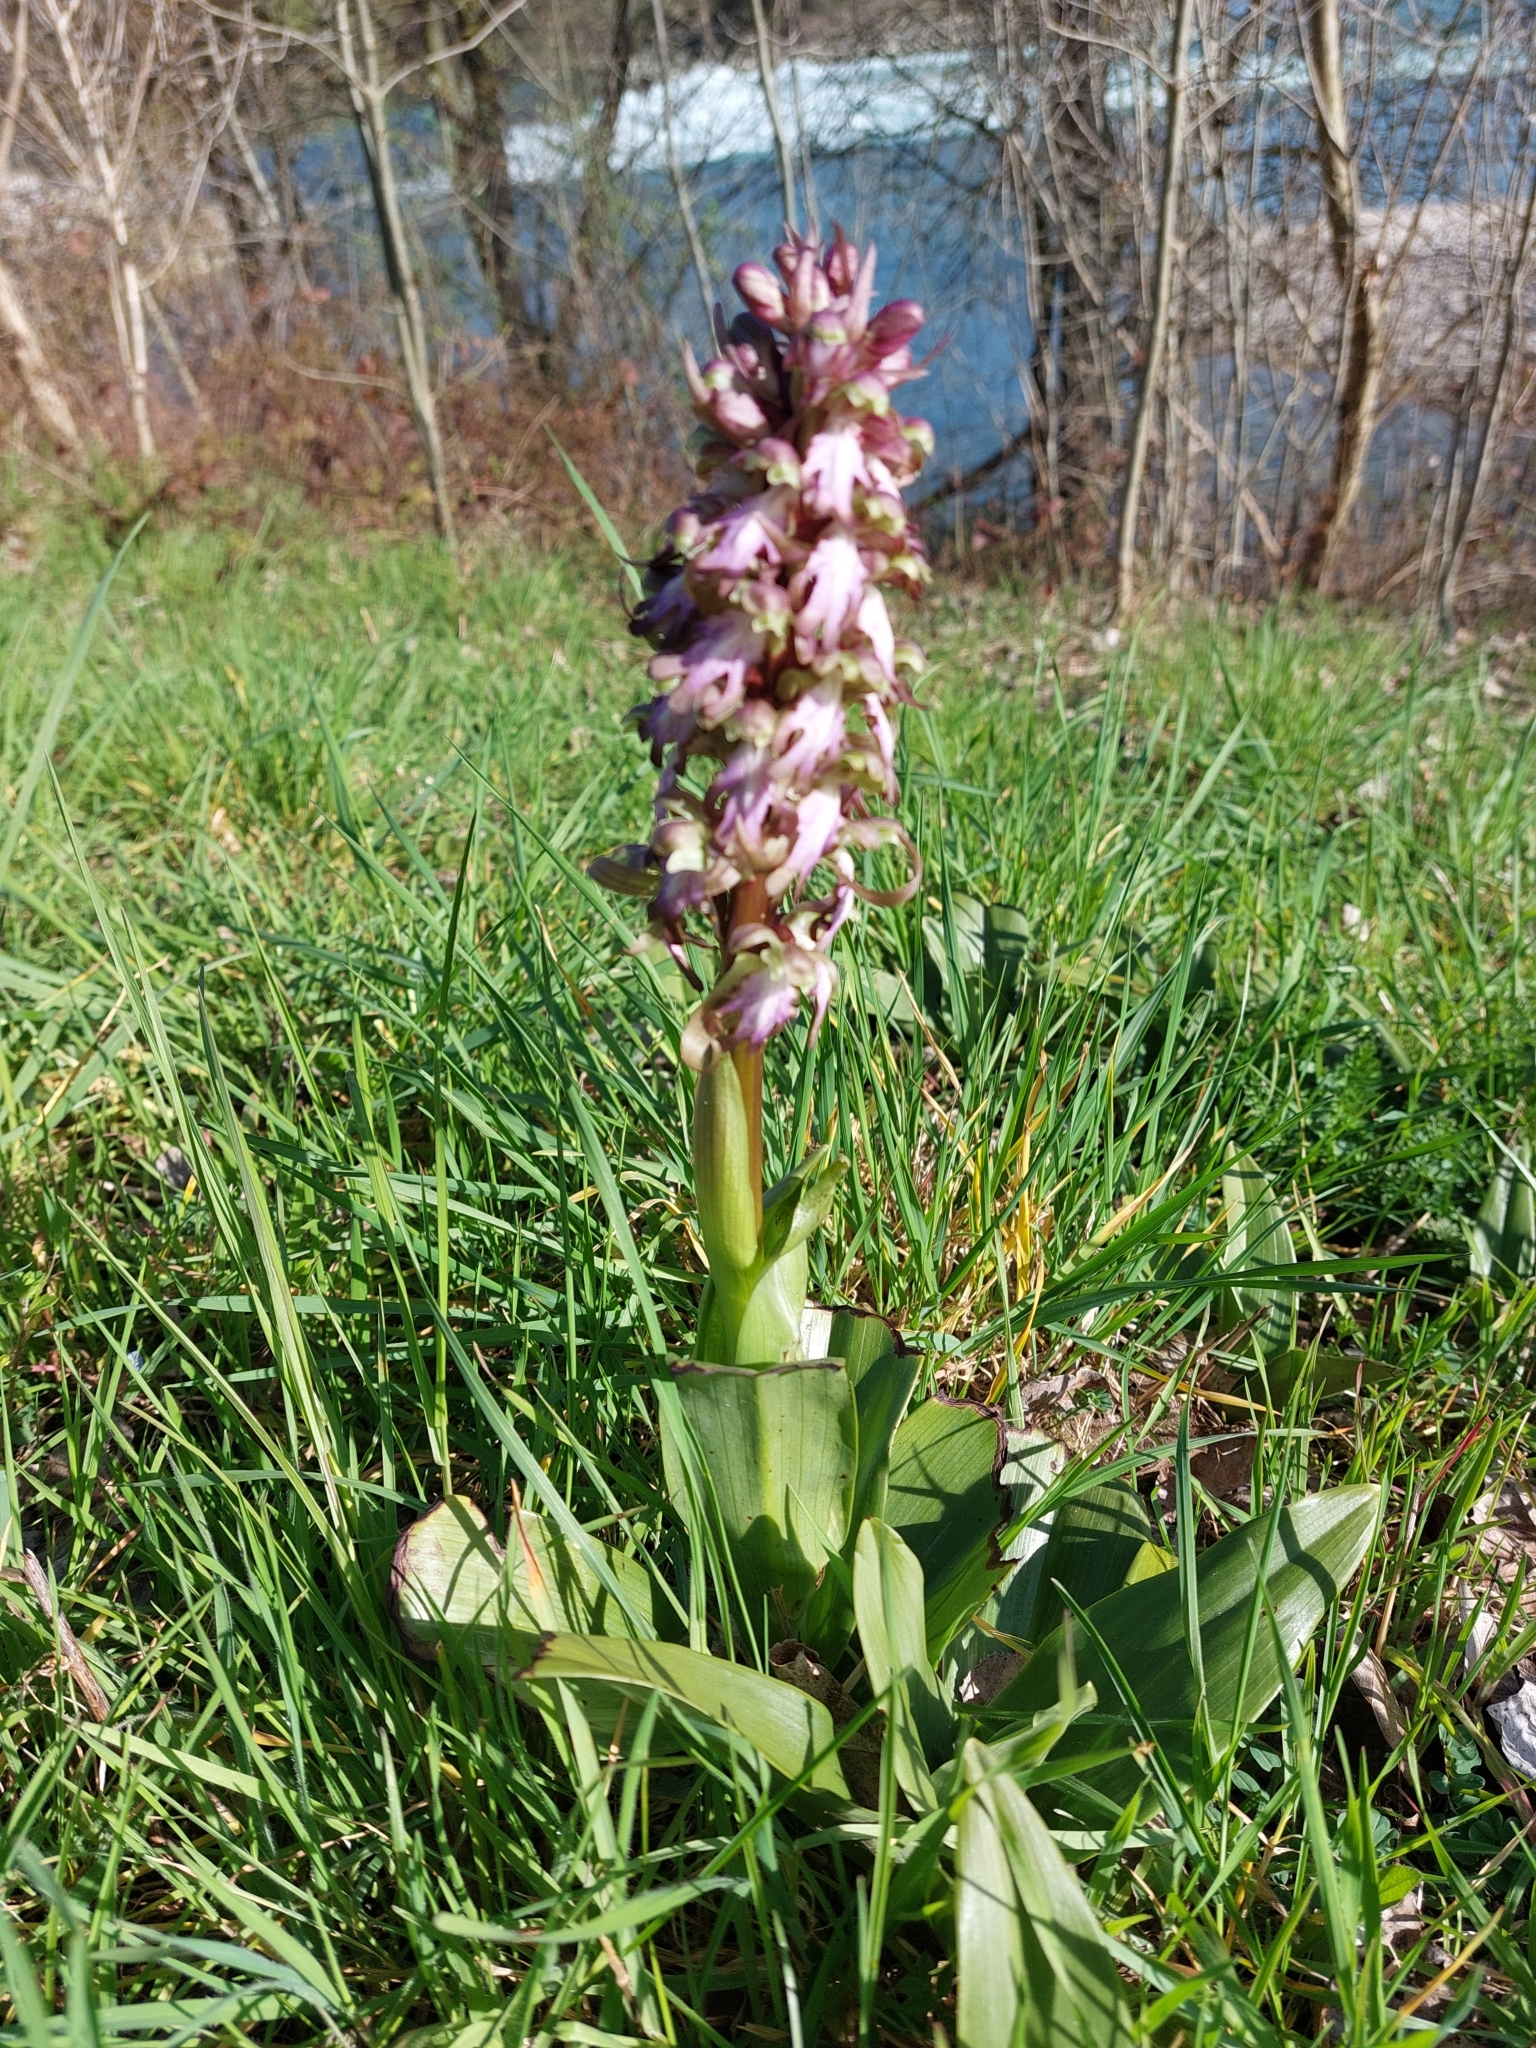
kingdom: Plantae
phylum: Tracheophyta
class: Liliopsida
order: Asparagales
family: Orchidaceae
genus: Himantoglossum
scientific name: Himantoglossum robertianum
